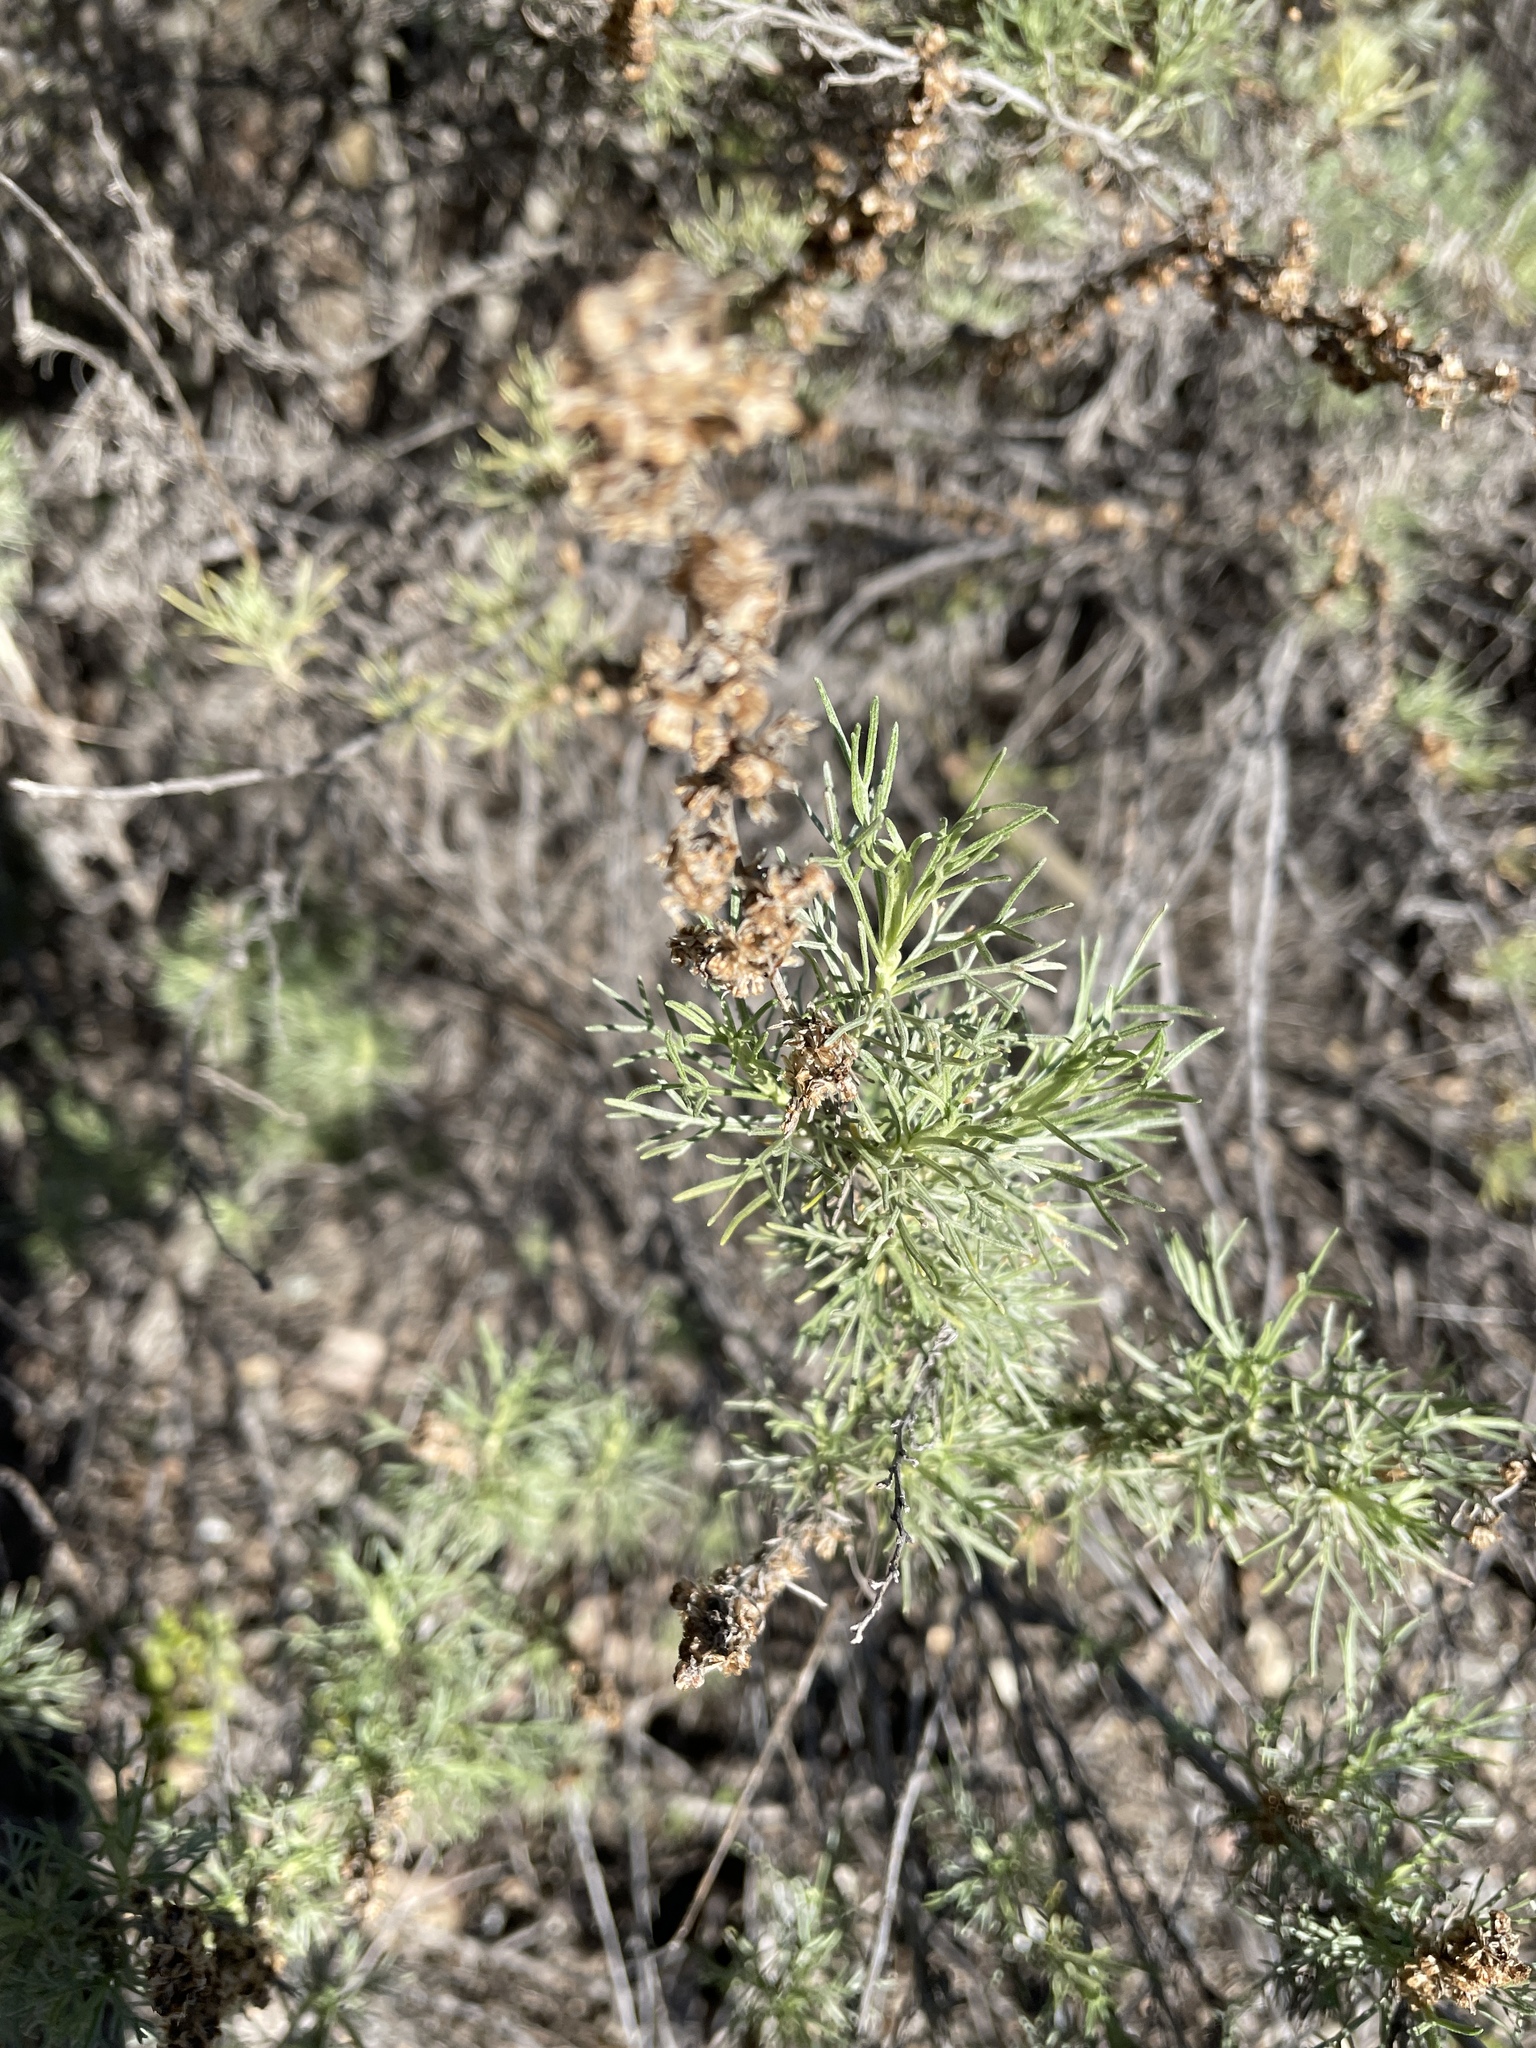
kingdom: Plantae
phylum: Tracheophyta
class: Magnoliopsida
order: Asterales
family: Asteraceae
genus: Artemisia
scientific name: Artemisia californica
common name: California sagebrush
